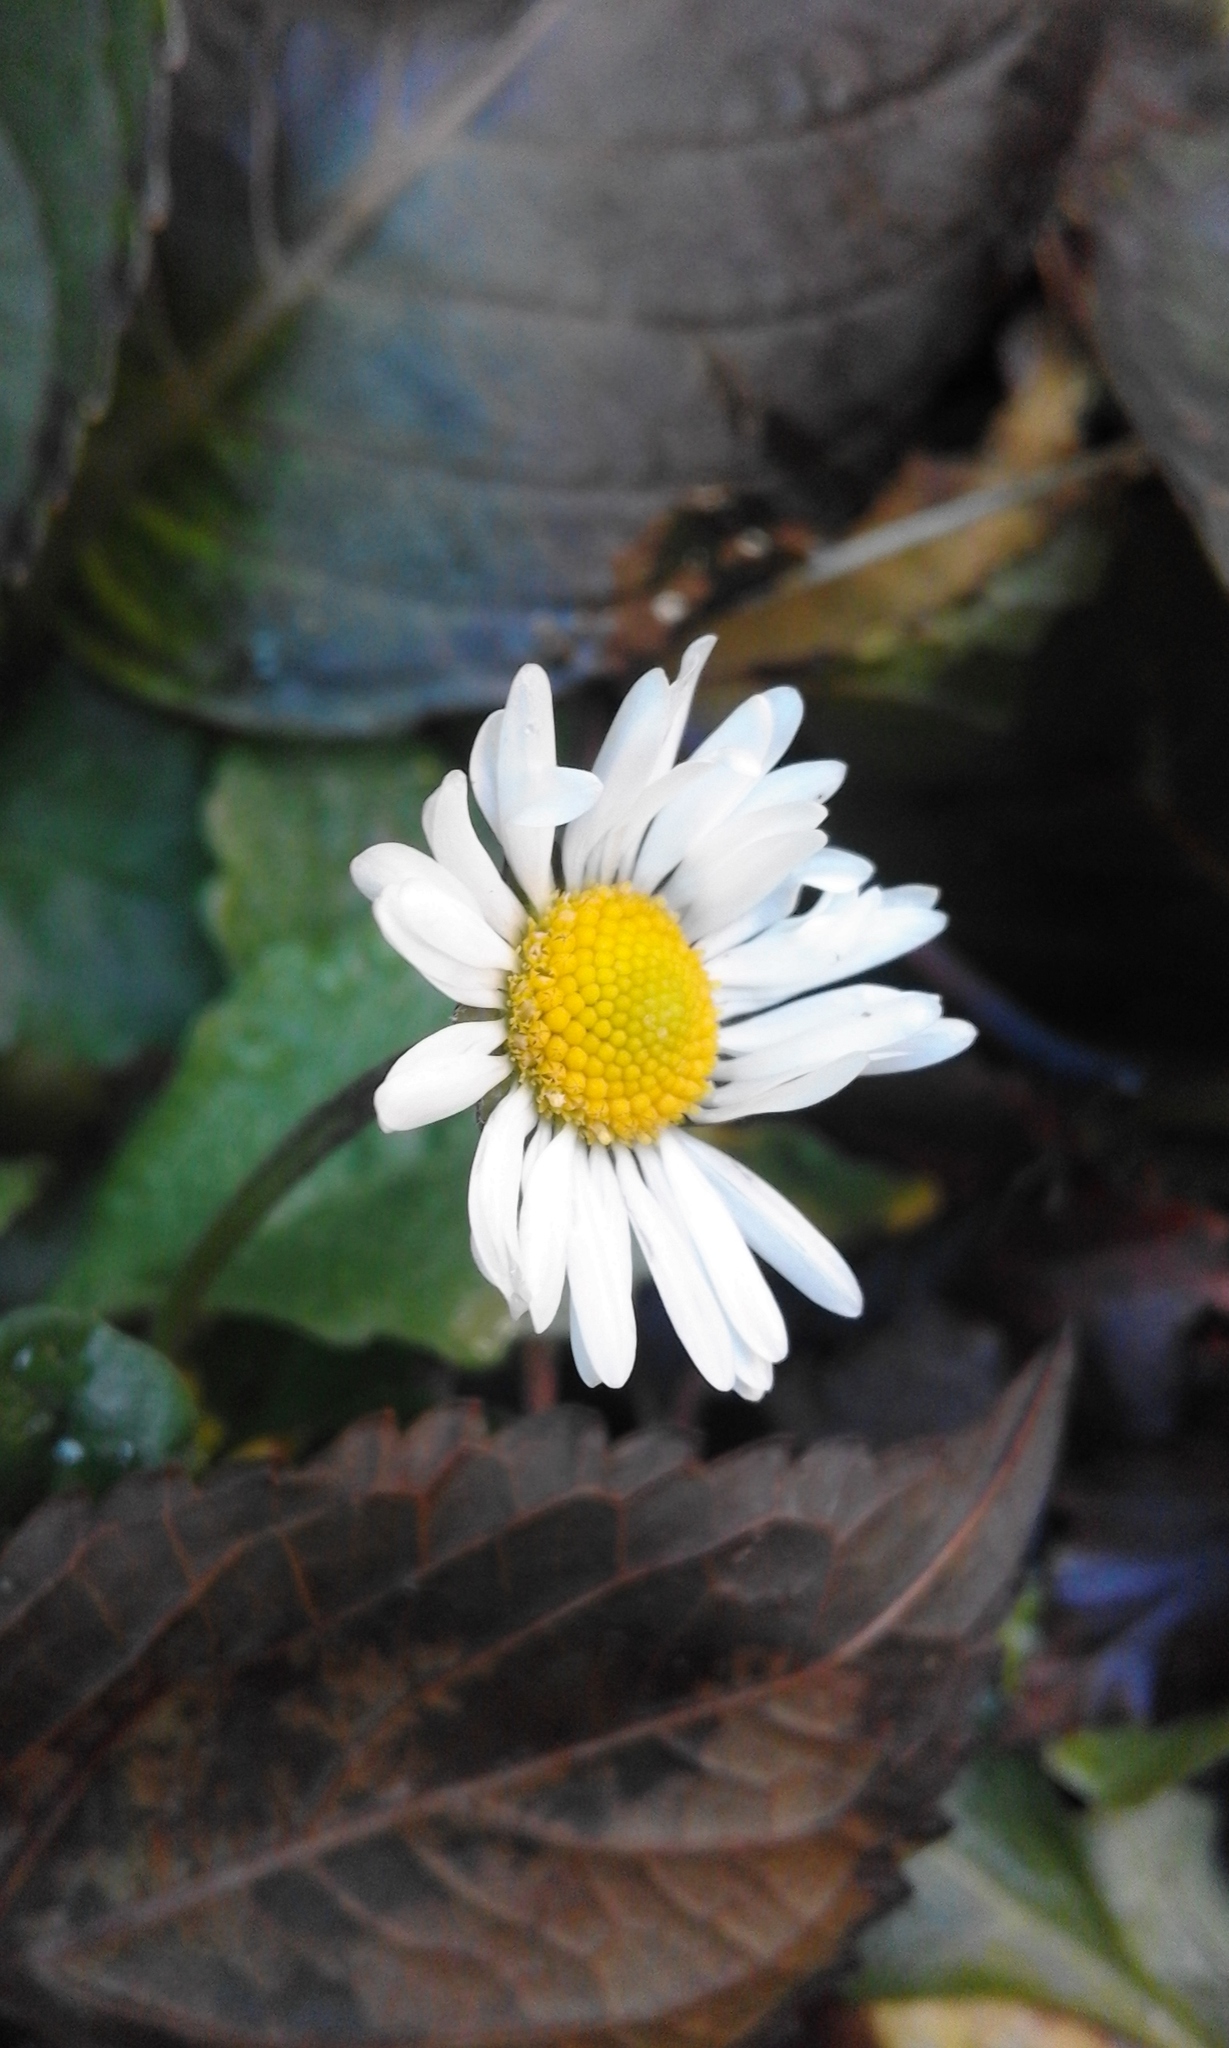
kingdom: Plantae
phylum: Tracheophyta
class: Magnoliopsida
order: Asterales
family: Asteraceae
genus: Bellis
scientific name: Bellis perennis
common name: Lawndaisy
